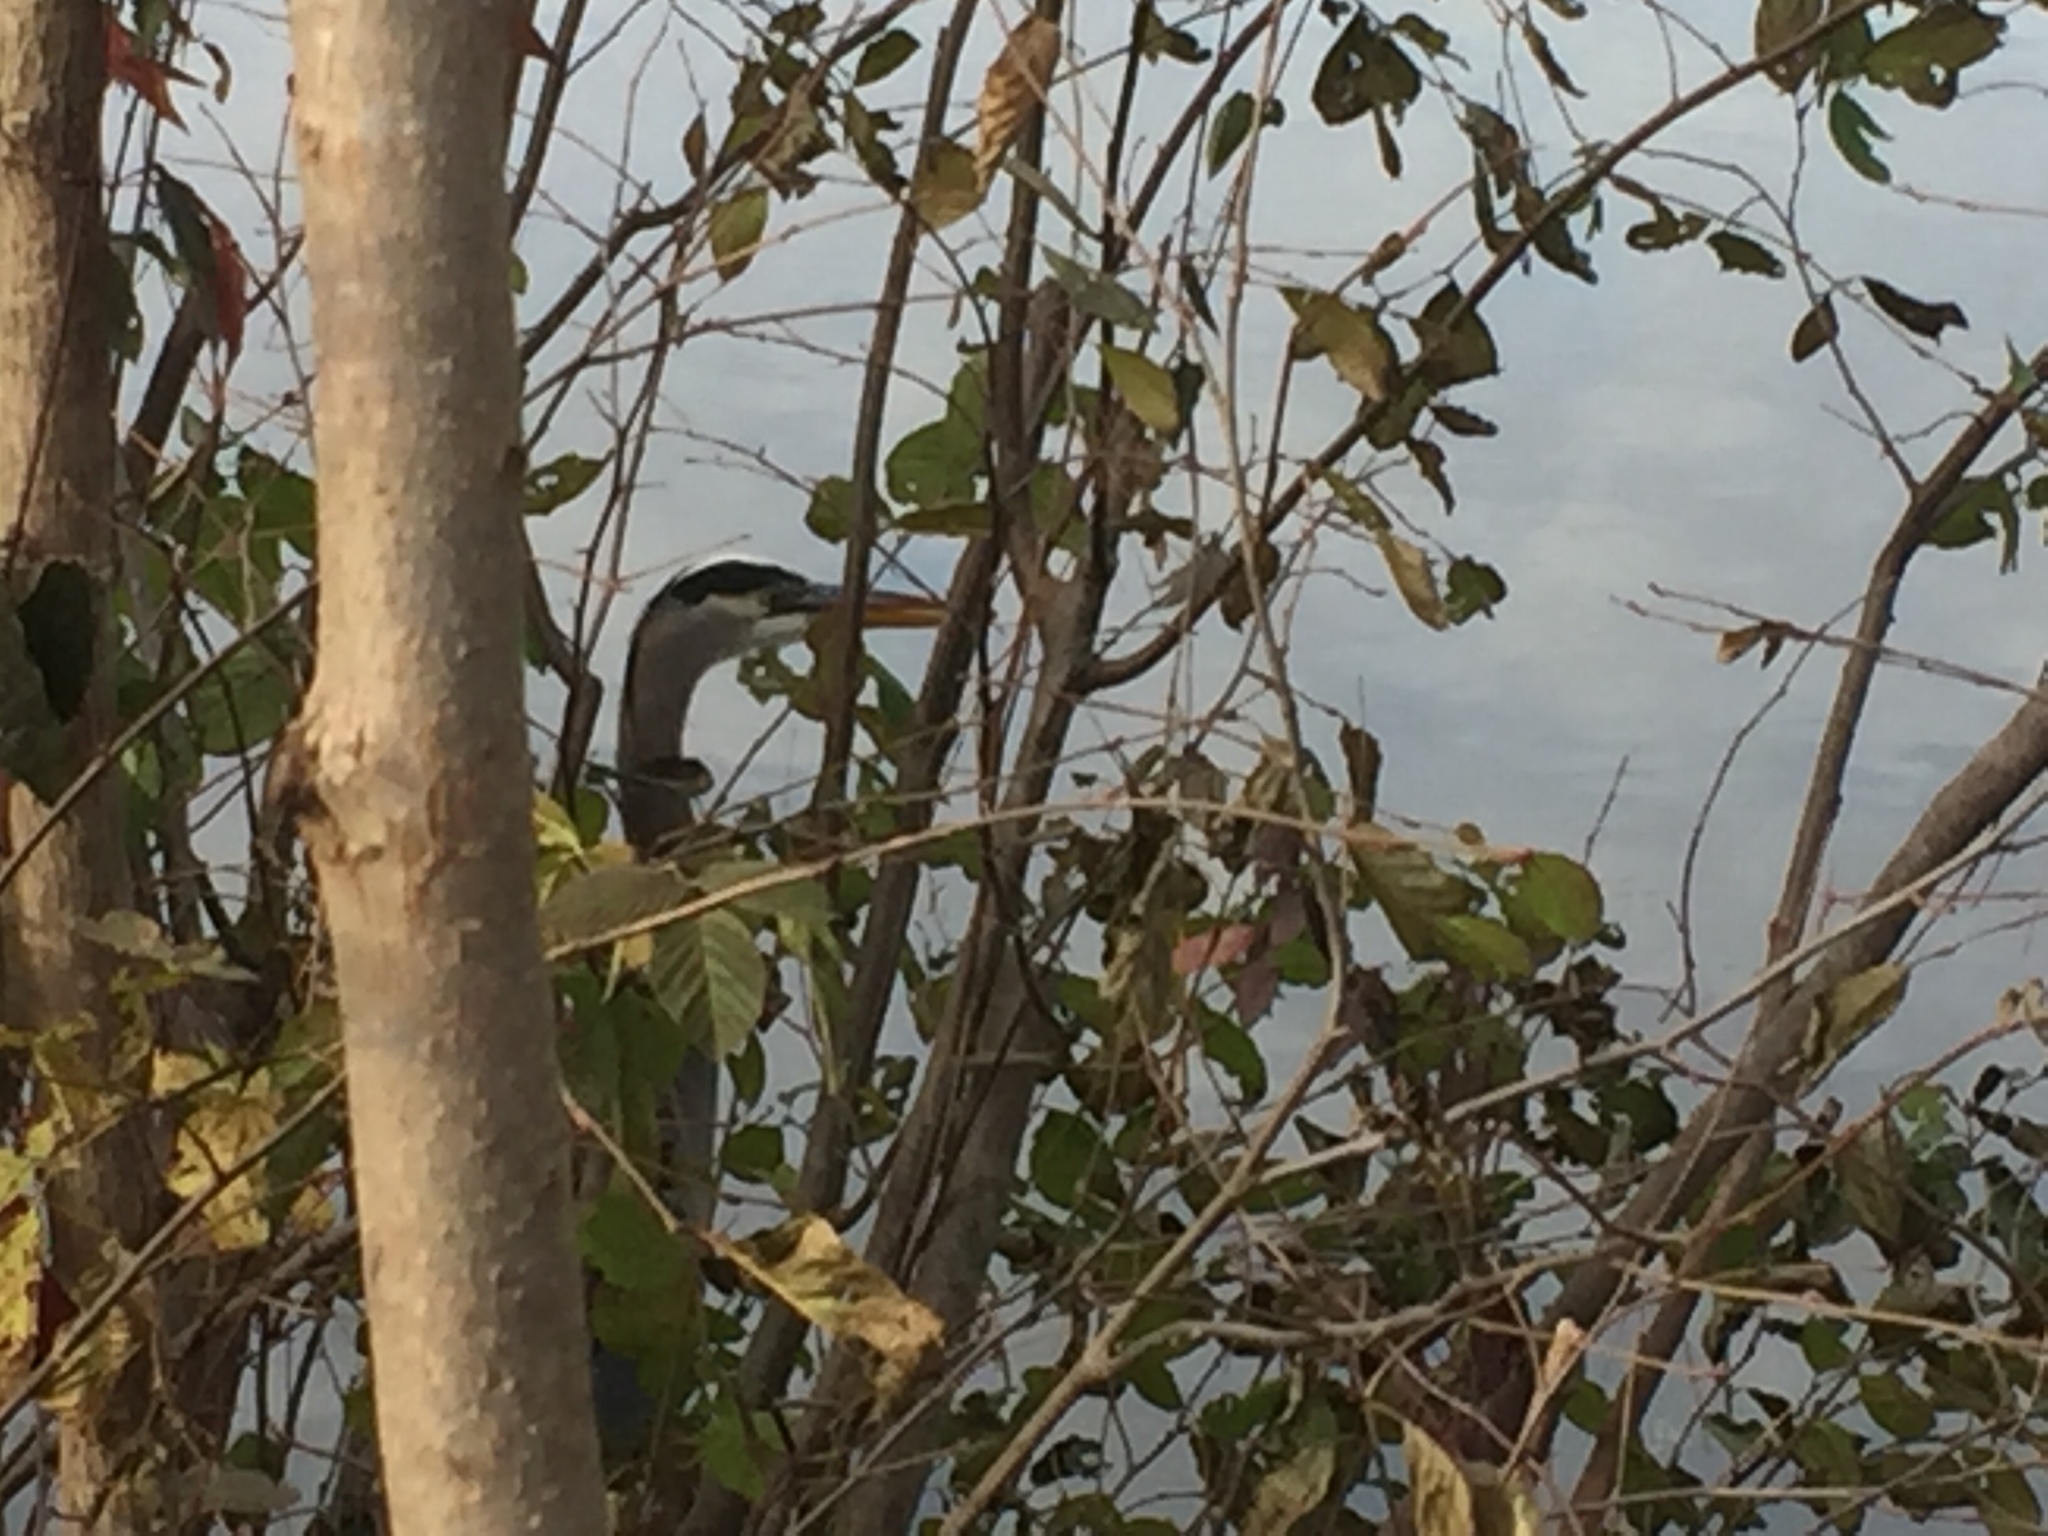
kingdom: Animalia
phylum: Chordata
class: Aves
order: Pelecaniformes
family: Ardeidae
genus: Ardea
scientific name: Ardea herodias
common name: Great blue heron
